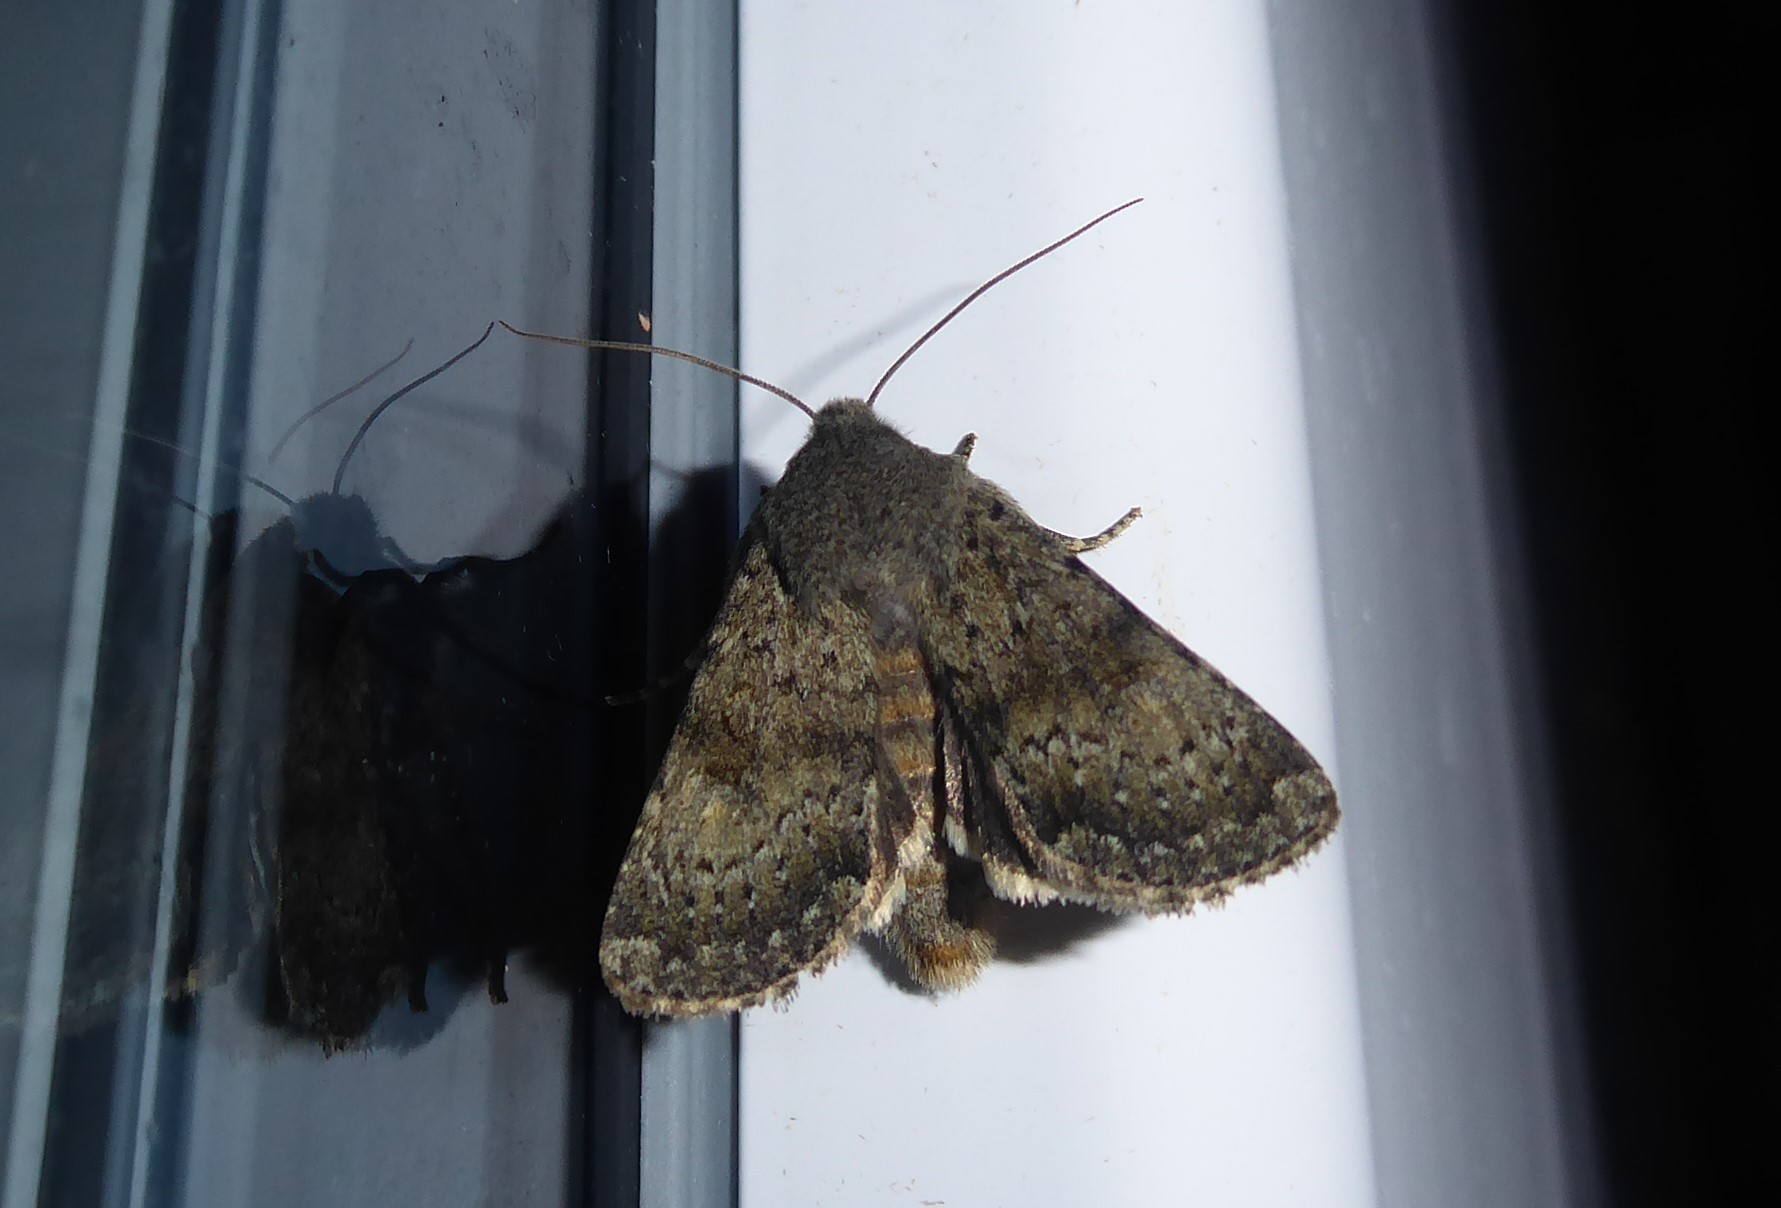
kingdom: Animalia
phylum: Arthropoda
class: Insecta
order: Lepidoptera
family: Noctuidae
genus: Ichneutica
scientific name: Ichneutica moderata
